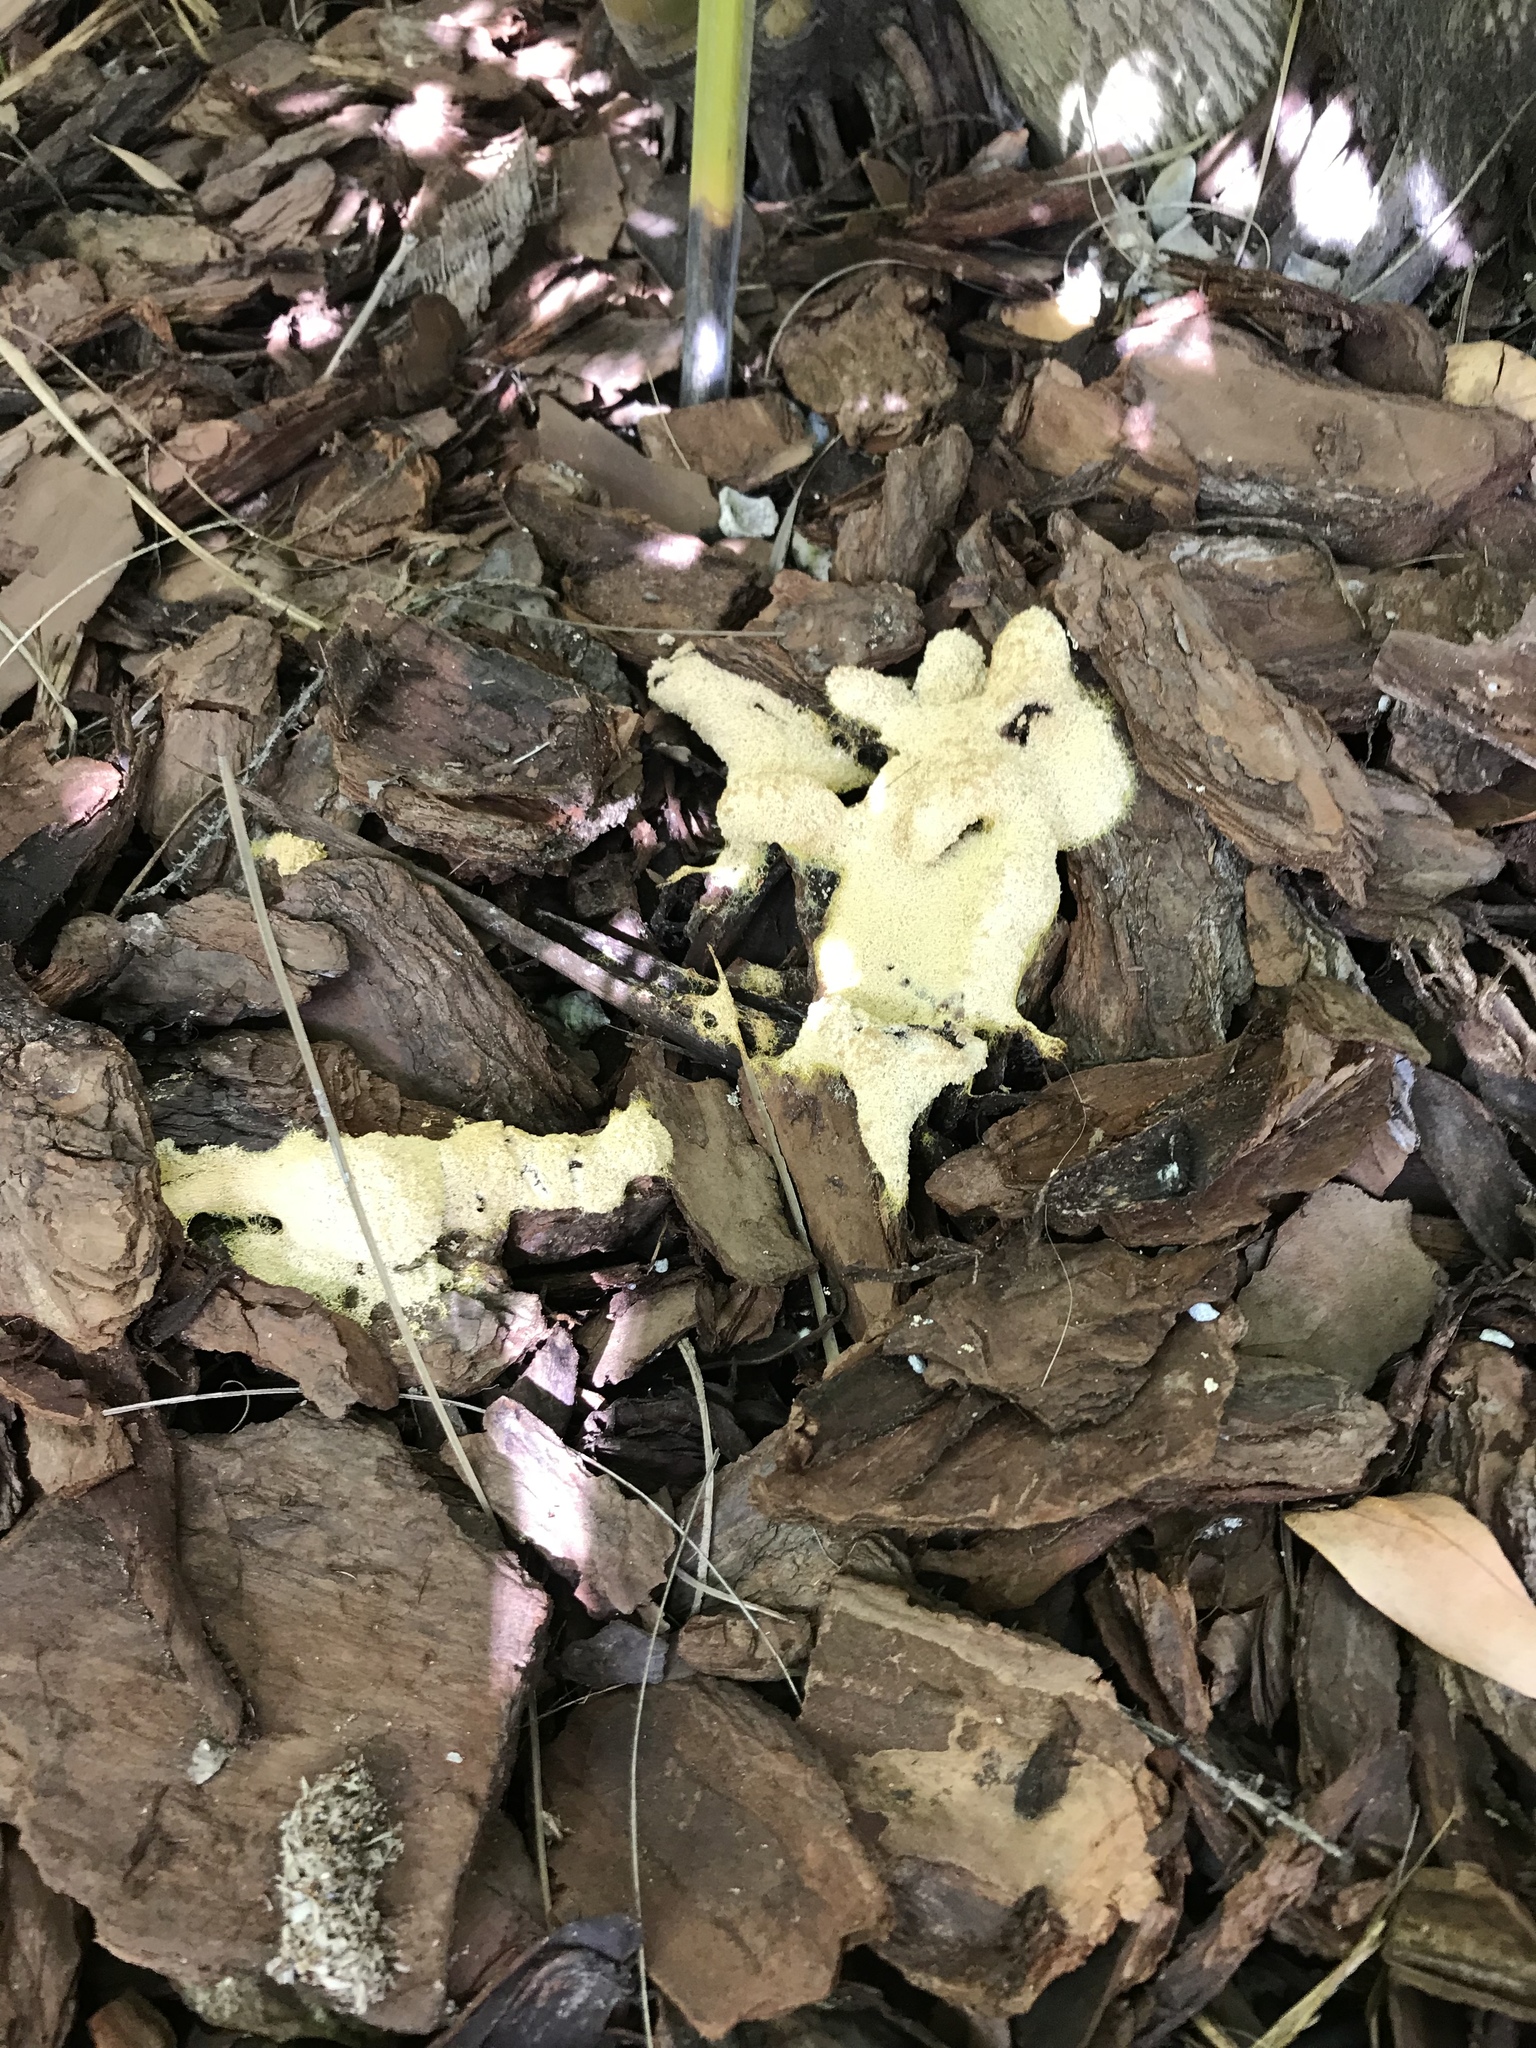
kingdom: Protozoa
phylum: Mycetozoa
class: Myxomycetes
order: Physarales
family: Physaraceae
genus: Fuligo
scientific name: Fuligo septica
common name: Dog vomit slime mold
